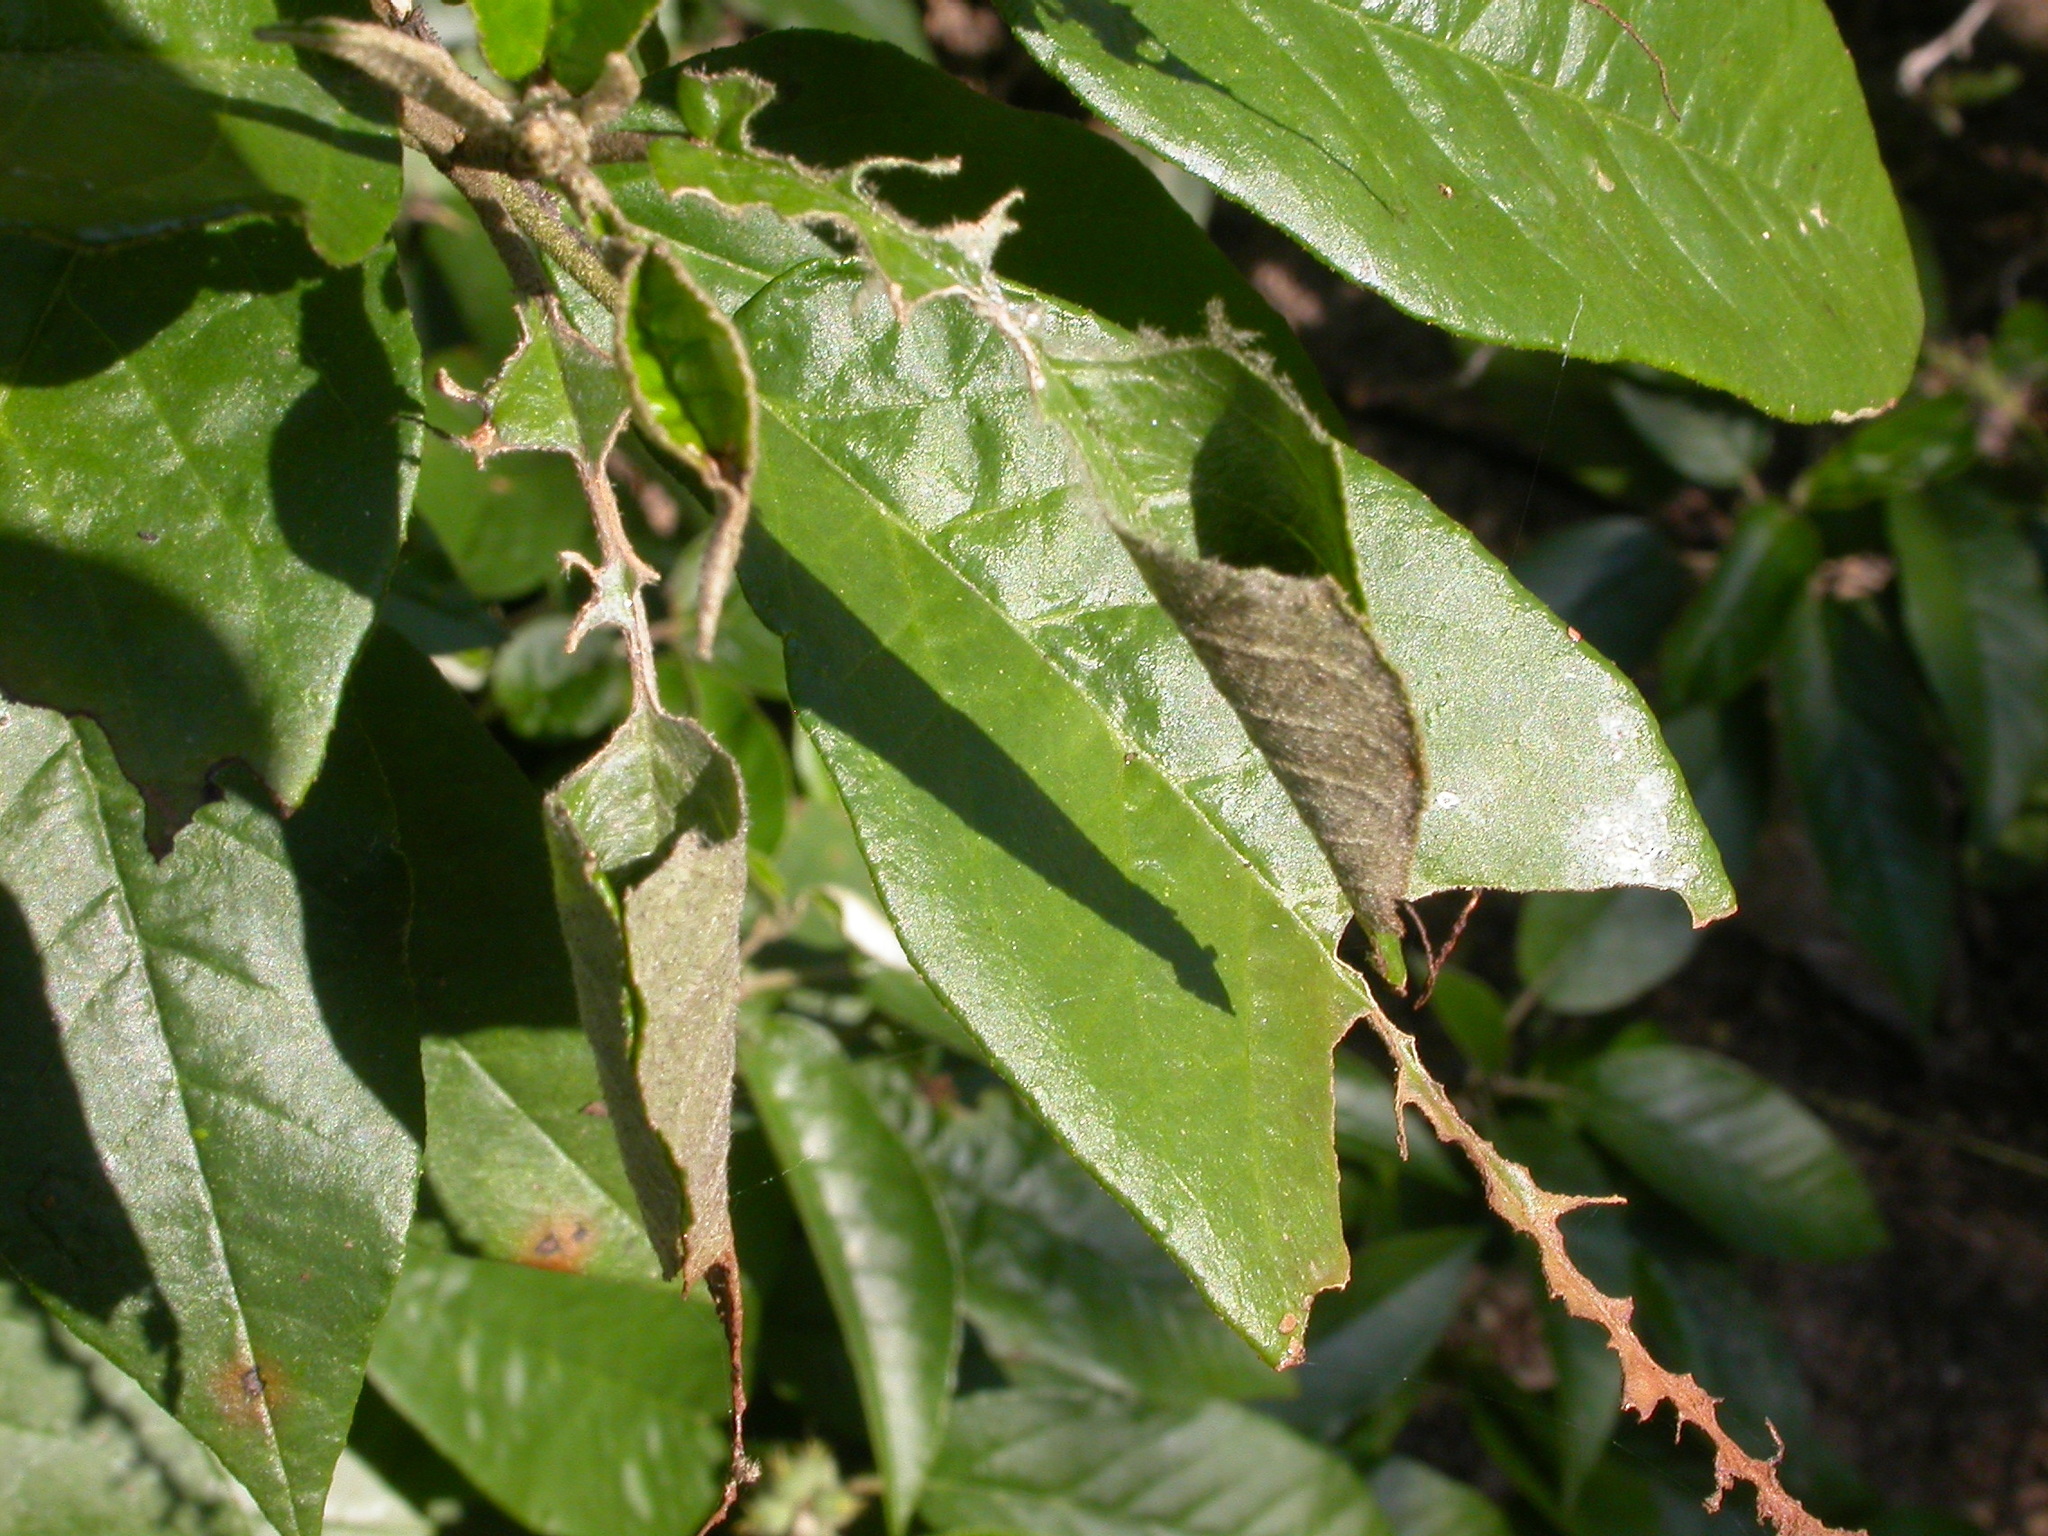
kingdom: Plantae
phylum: Tracheophyta
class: Magnoliopsida
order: Malpighiales
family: Euphorbiaceae
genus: Croton
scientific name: Croton cortesianus
